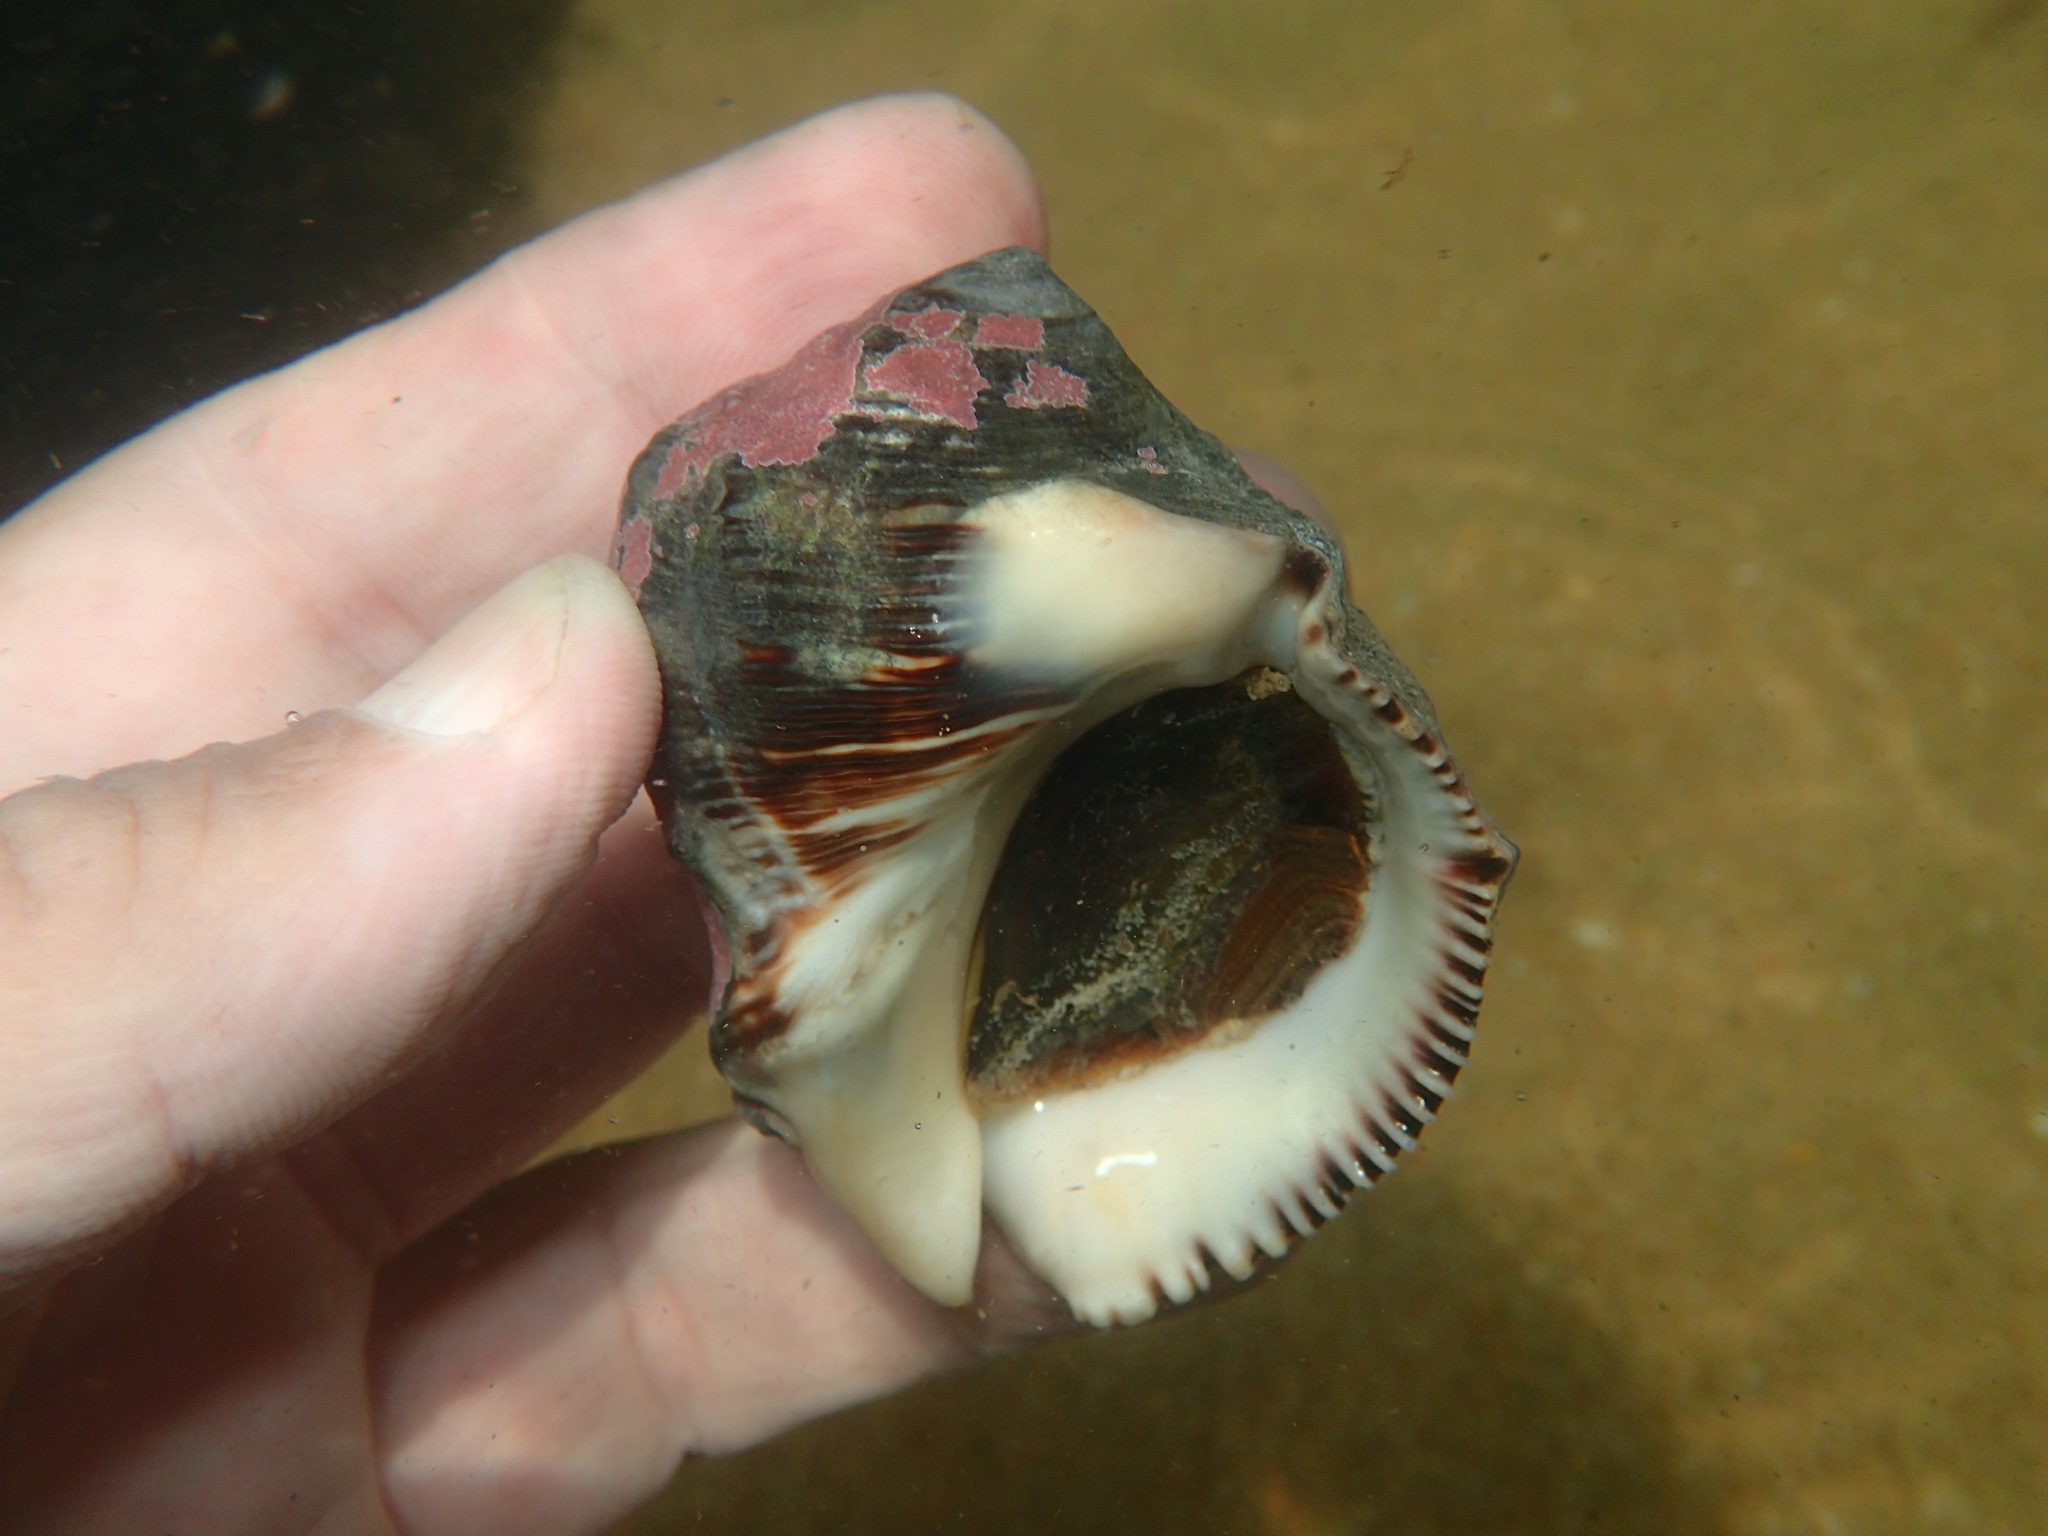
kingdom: Animalia
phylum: Mollusca
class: Gastropoda
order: Neogastropoda
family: Muricidae
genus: Purpura
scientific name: Purpura bufo
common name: Toad purple
